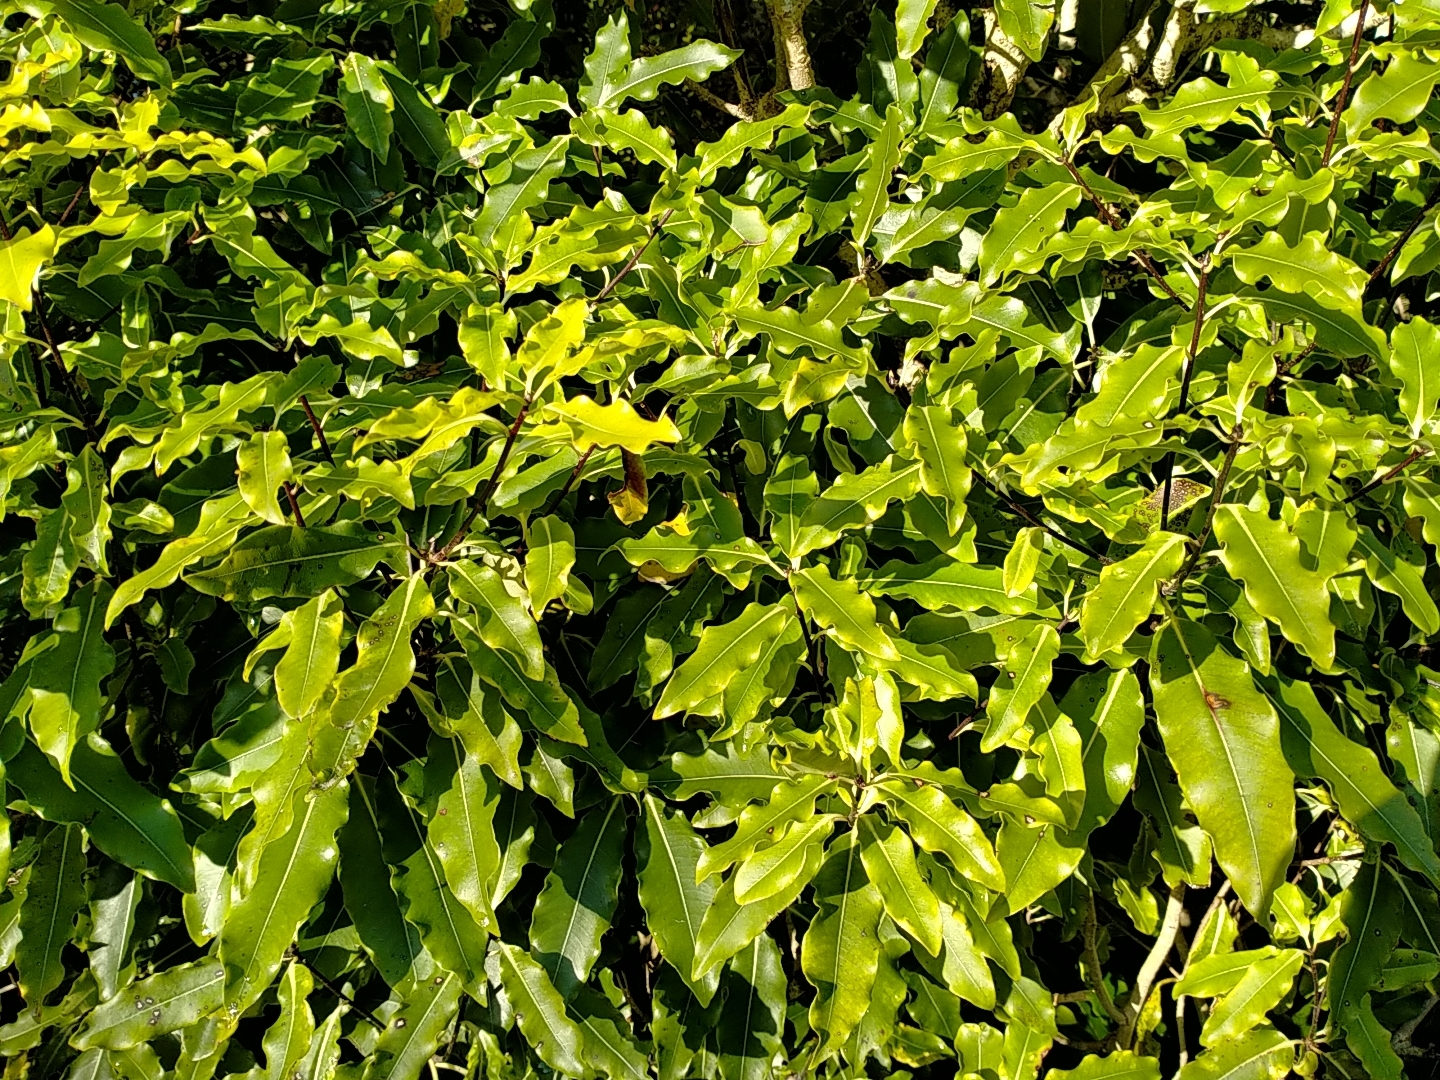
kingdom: Plantae
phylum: Tracheophyta
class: Magnoliopsida
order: Apiales
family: Pittosporaceae
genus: Pittosporum
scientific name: Pittosporum eugenioides
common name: Lemonwood
